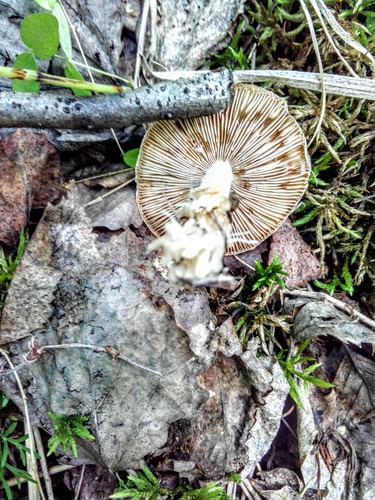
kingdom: Fungi
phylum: Basidiomycota
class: Agaricomycetes
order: Agaricales
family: Inocybaceae
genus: Inocybe
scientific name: Inocybe
